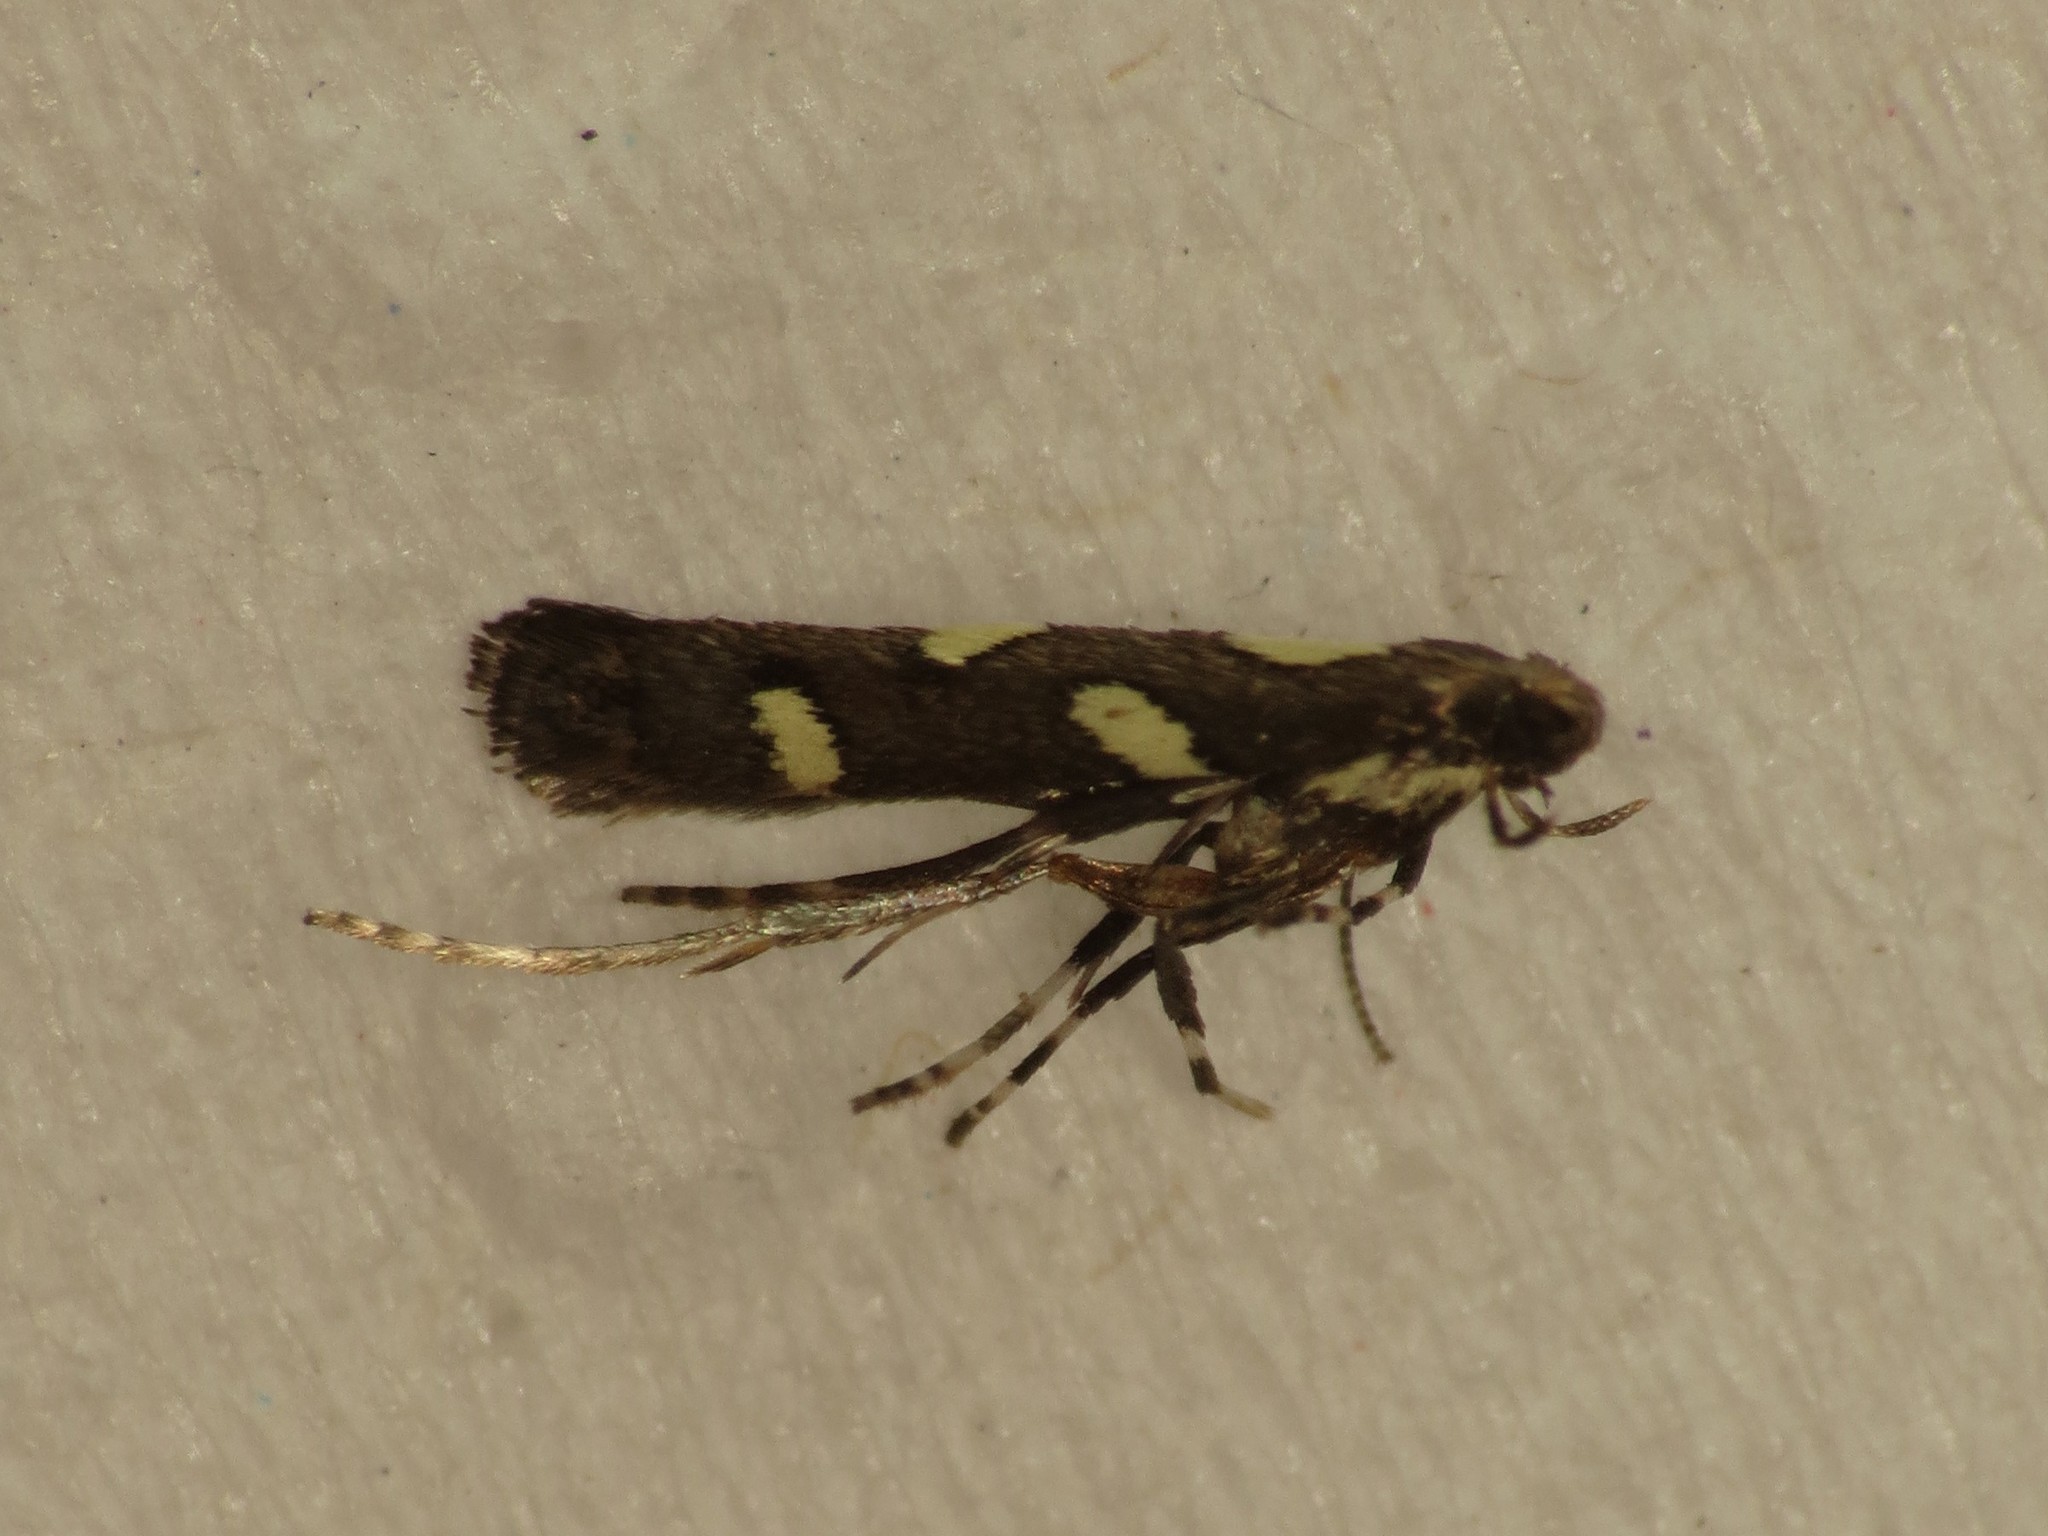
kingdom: Animalia
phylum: Arthropoda
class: Insecta
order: Lepidoptera
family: Gracillariidae
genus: Calybites
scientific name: Calybites phasianipennella
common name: Little slender
